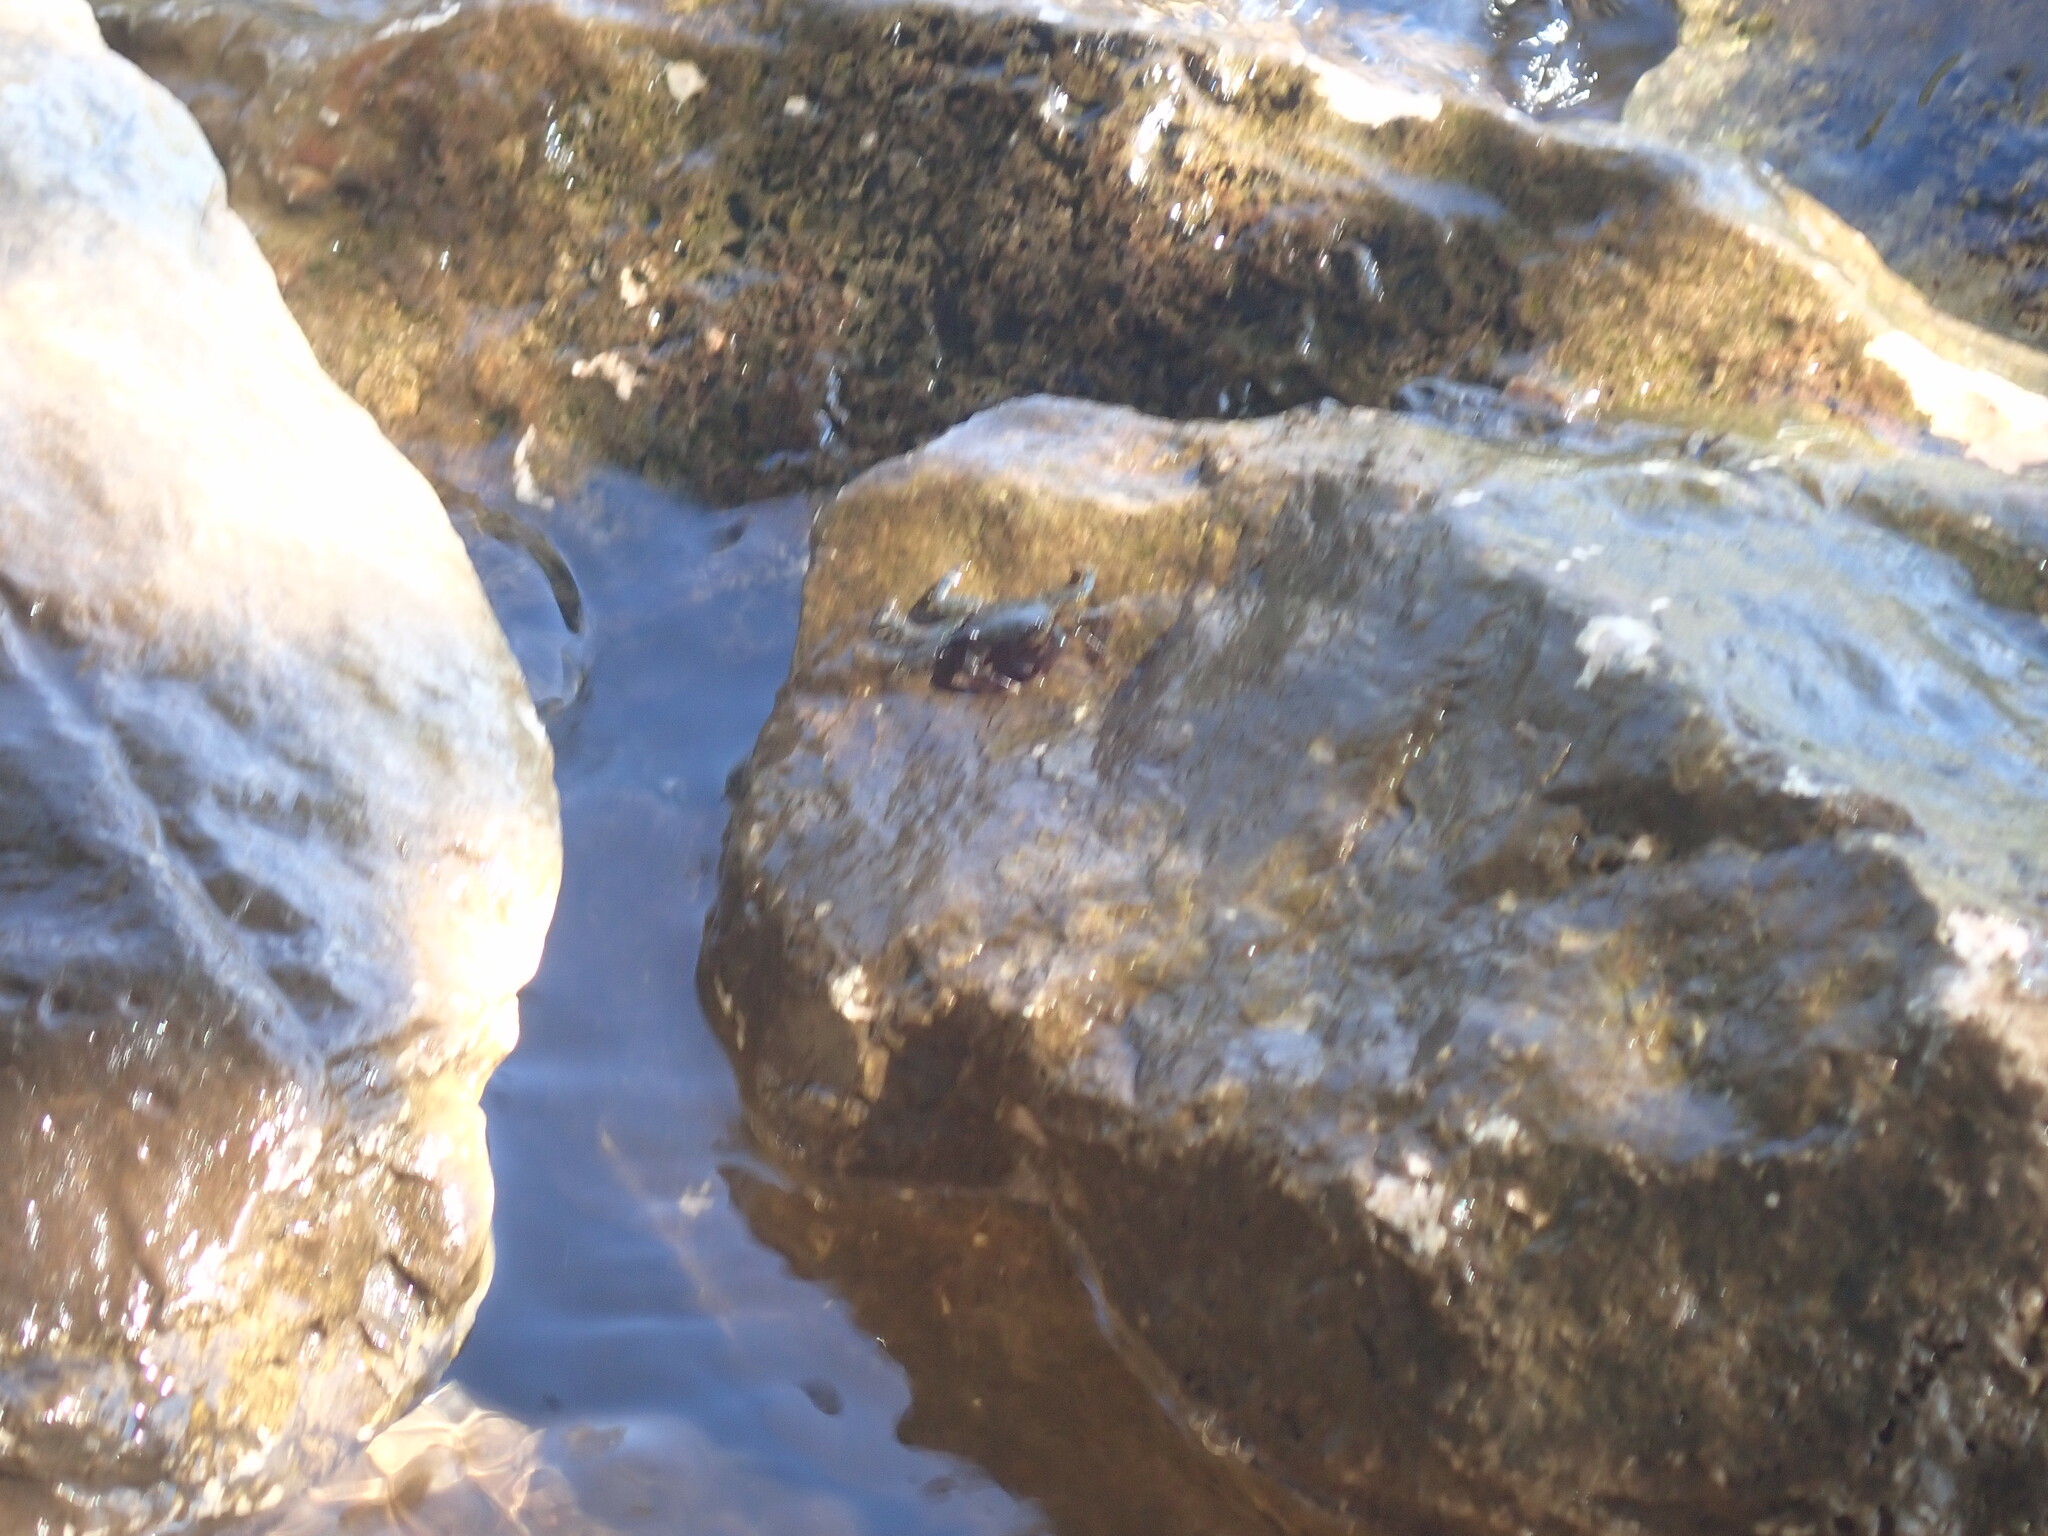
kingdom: Animalia
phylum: Arthropoda
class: Malacostraca
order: Decapoda
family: Grapsidae
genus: Pachygrapsus
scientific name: Pachygrapsus marmoratus
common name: Marbled rock crab
